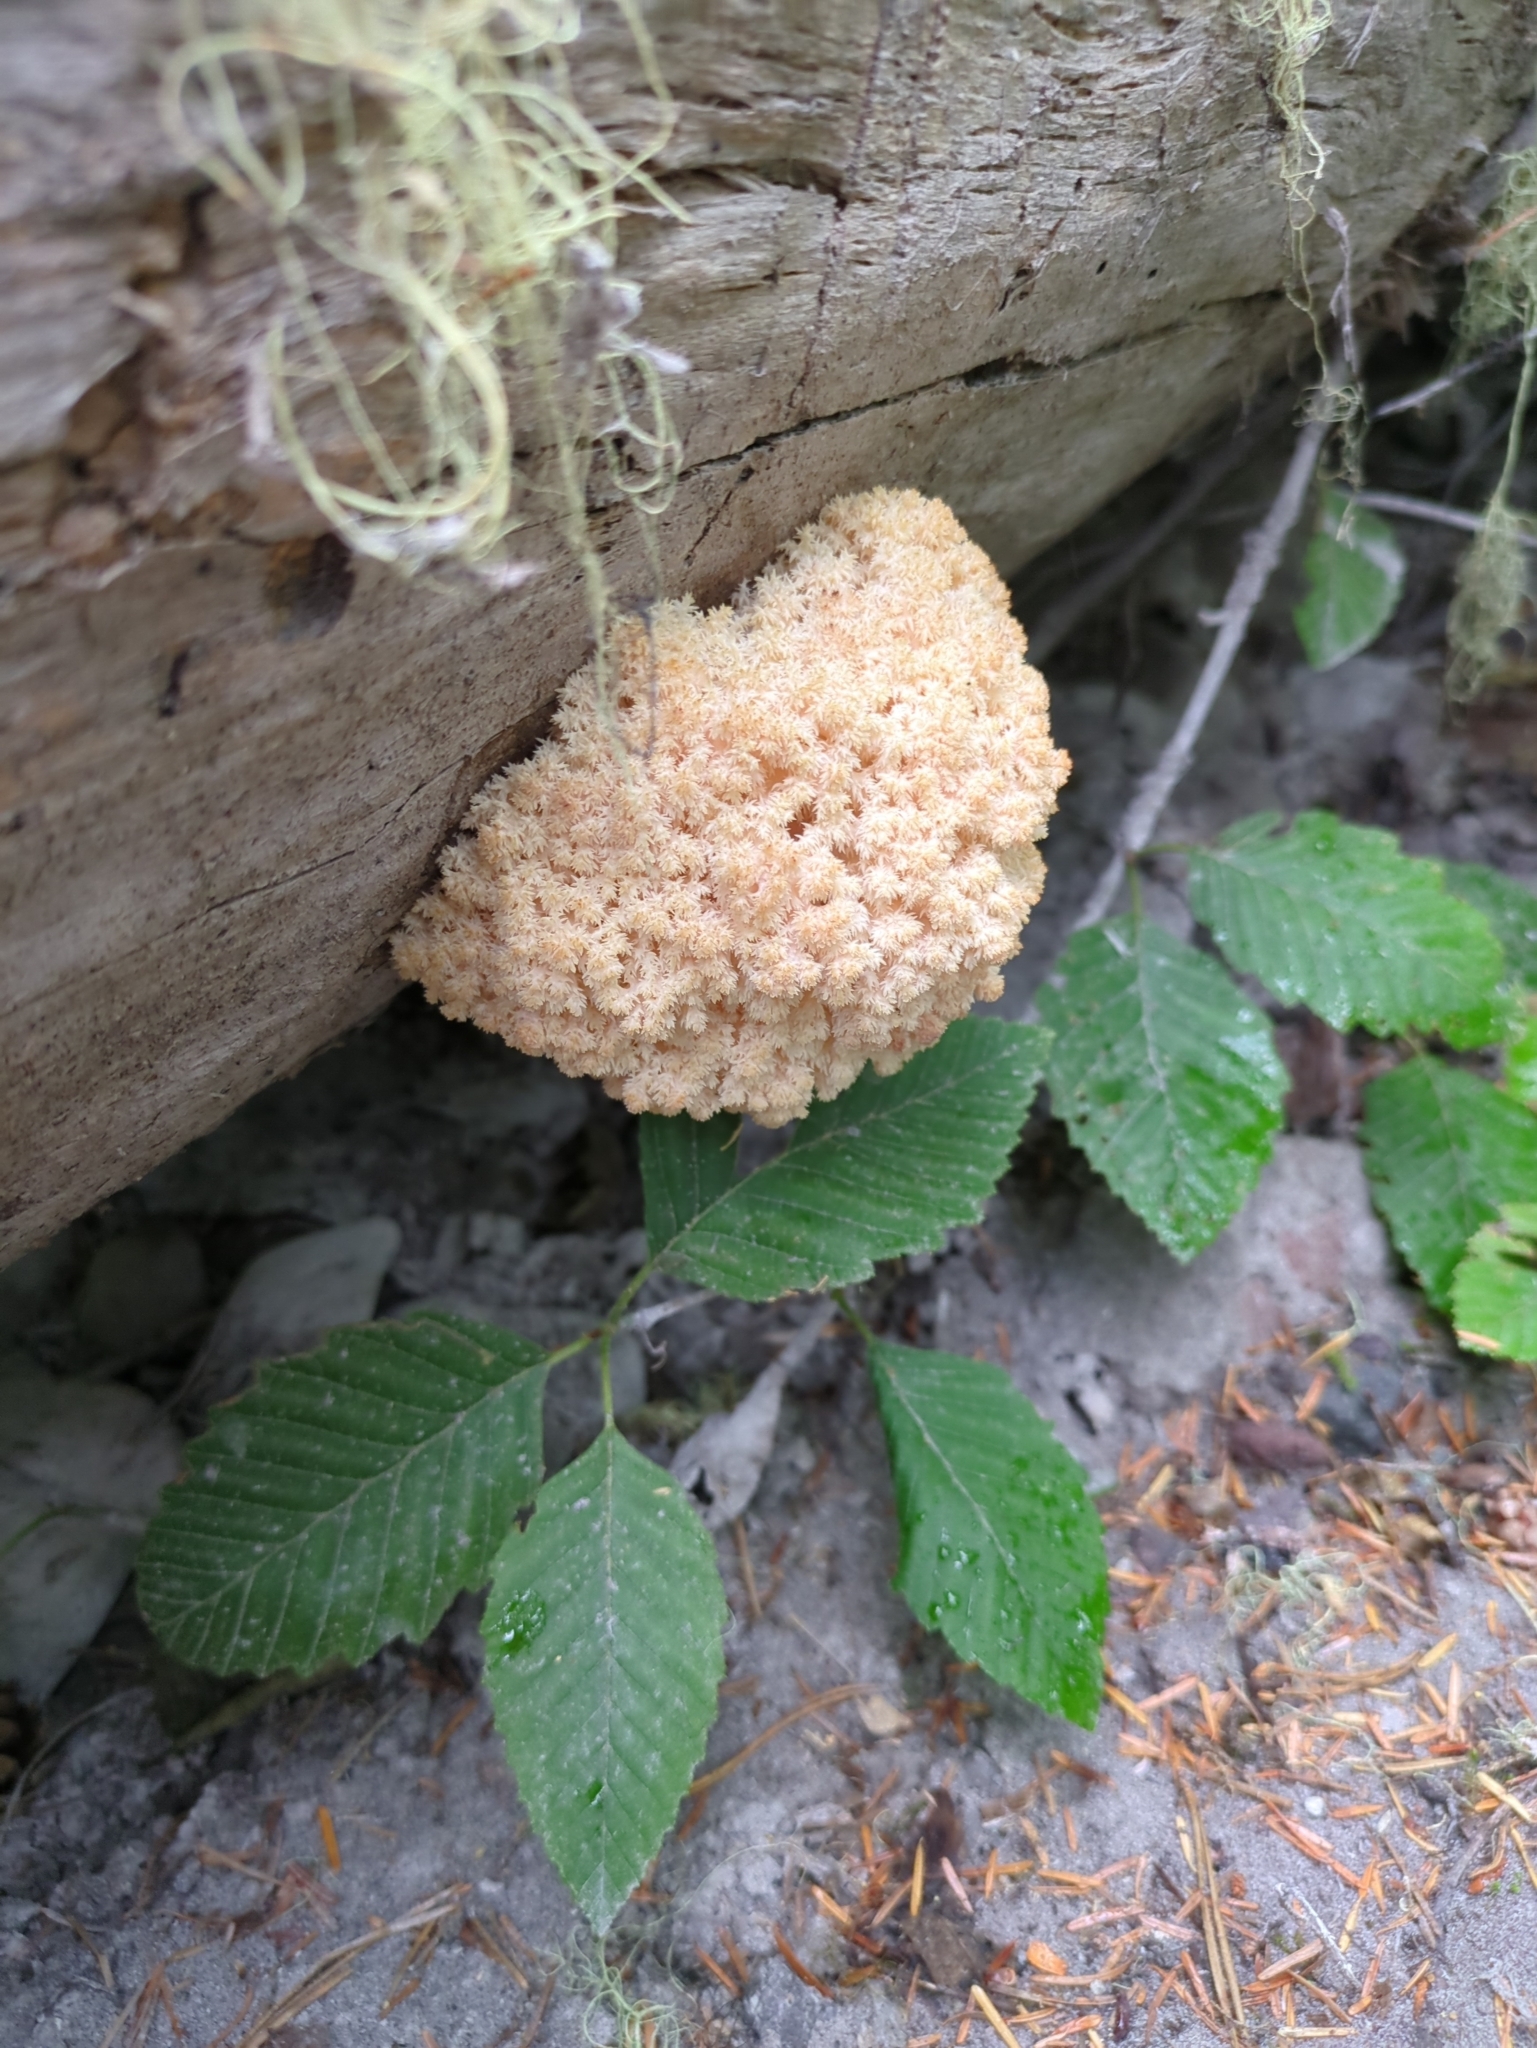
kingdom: Fungi
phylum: Basidiomycota
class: Agaricomycetes
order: Russulales
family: Hericiaceae
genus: Hericium
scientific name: Hericium abietis
